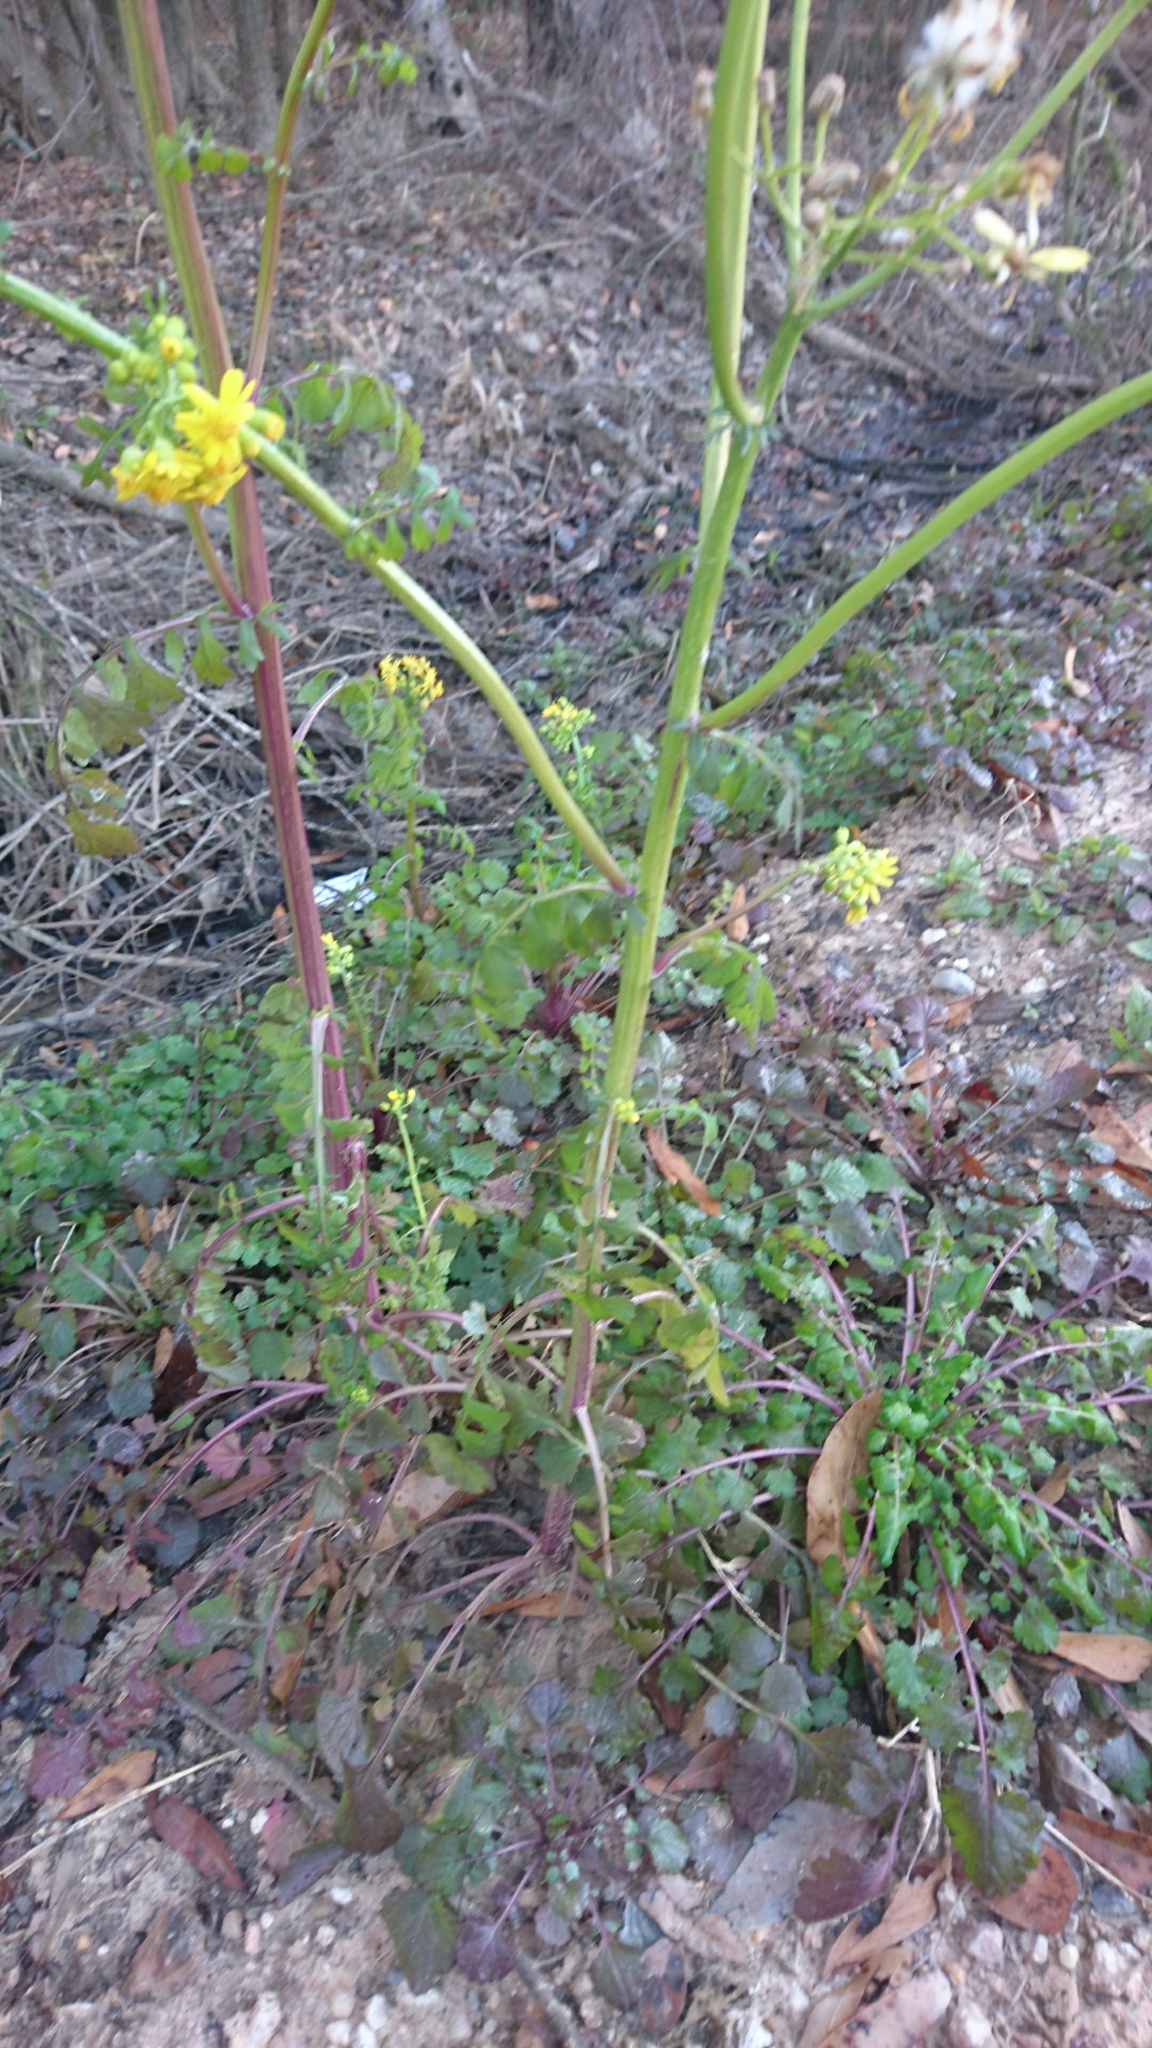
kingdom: Plantae
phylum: Tracheophyta
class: Magnoliopsida
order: Asterales
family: Asteraceae
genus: Packera
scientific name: Packera glabella
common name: Butterweed
